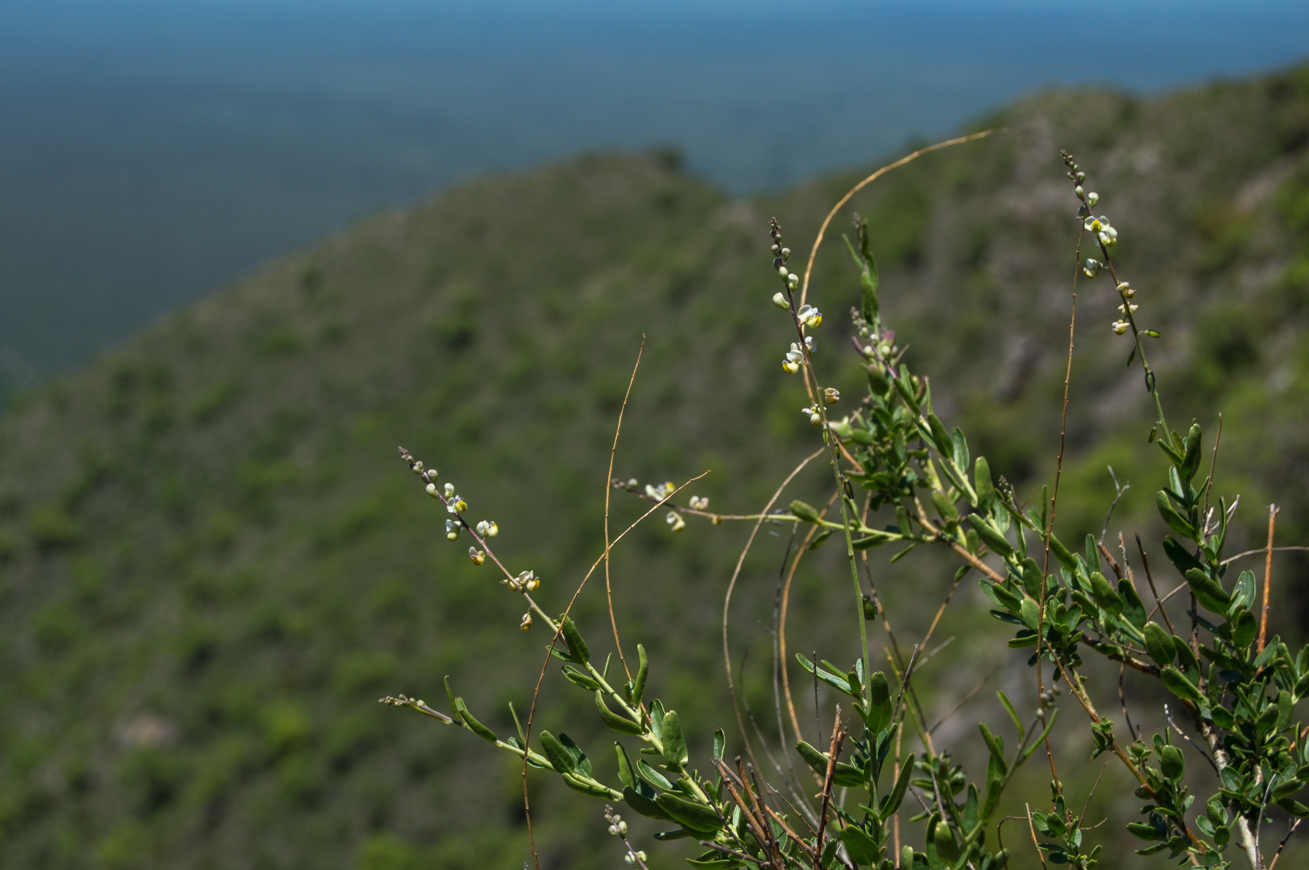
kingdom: Plantae
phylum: Tracheophyta
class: Magnoliopsida
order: Fabales
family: Polygalaceae
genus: Monnina
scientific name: Monnina dictyocarpa
